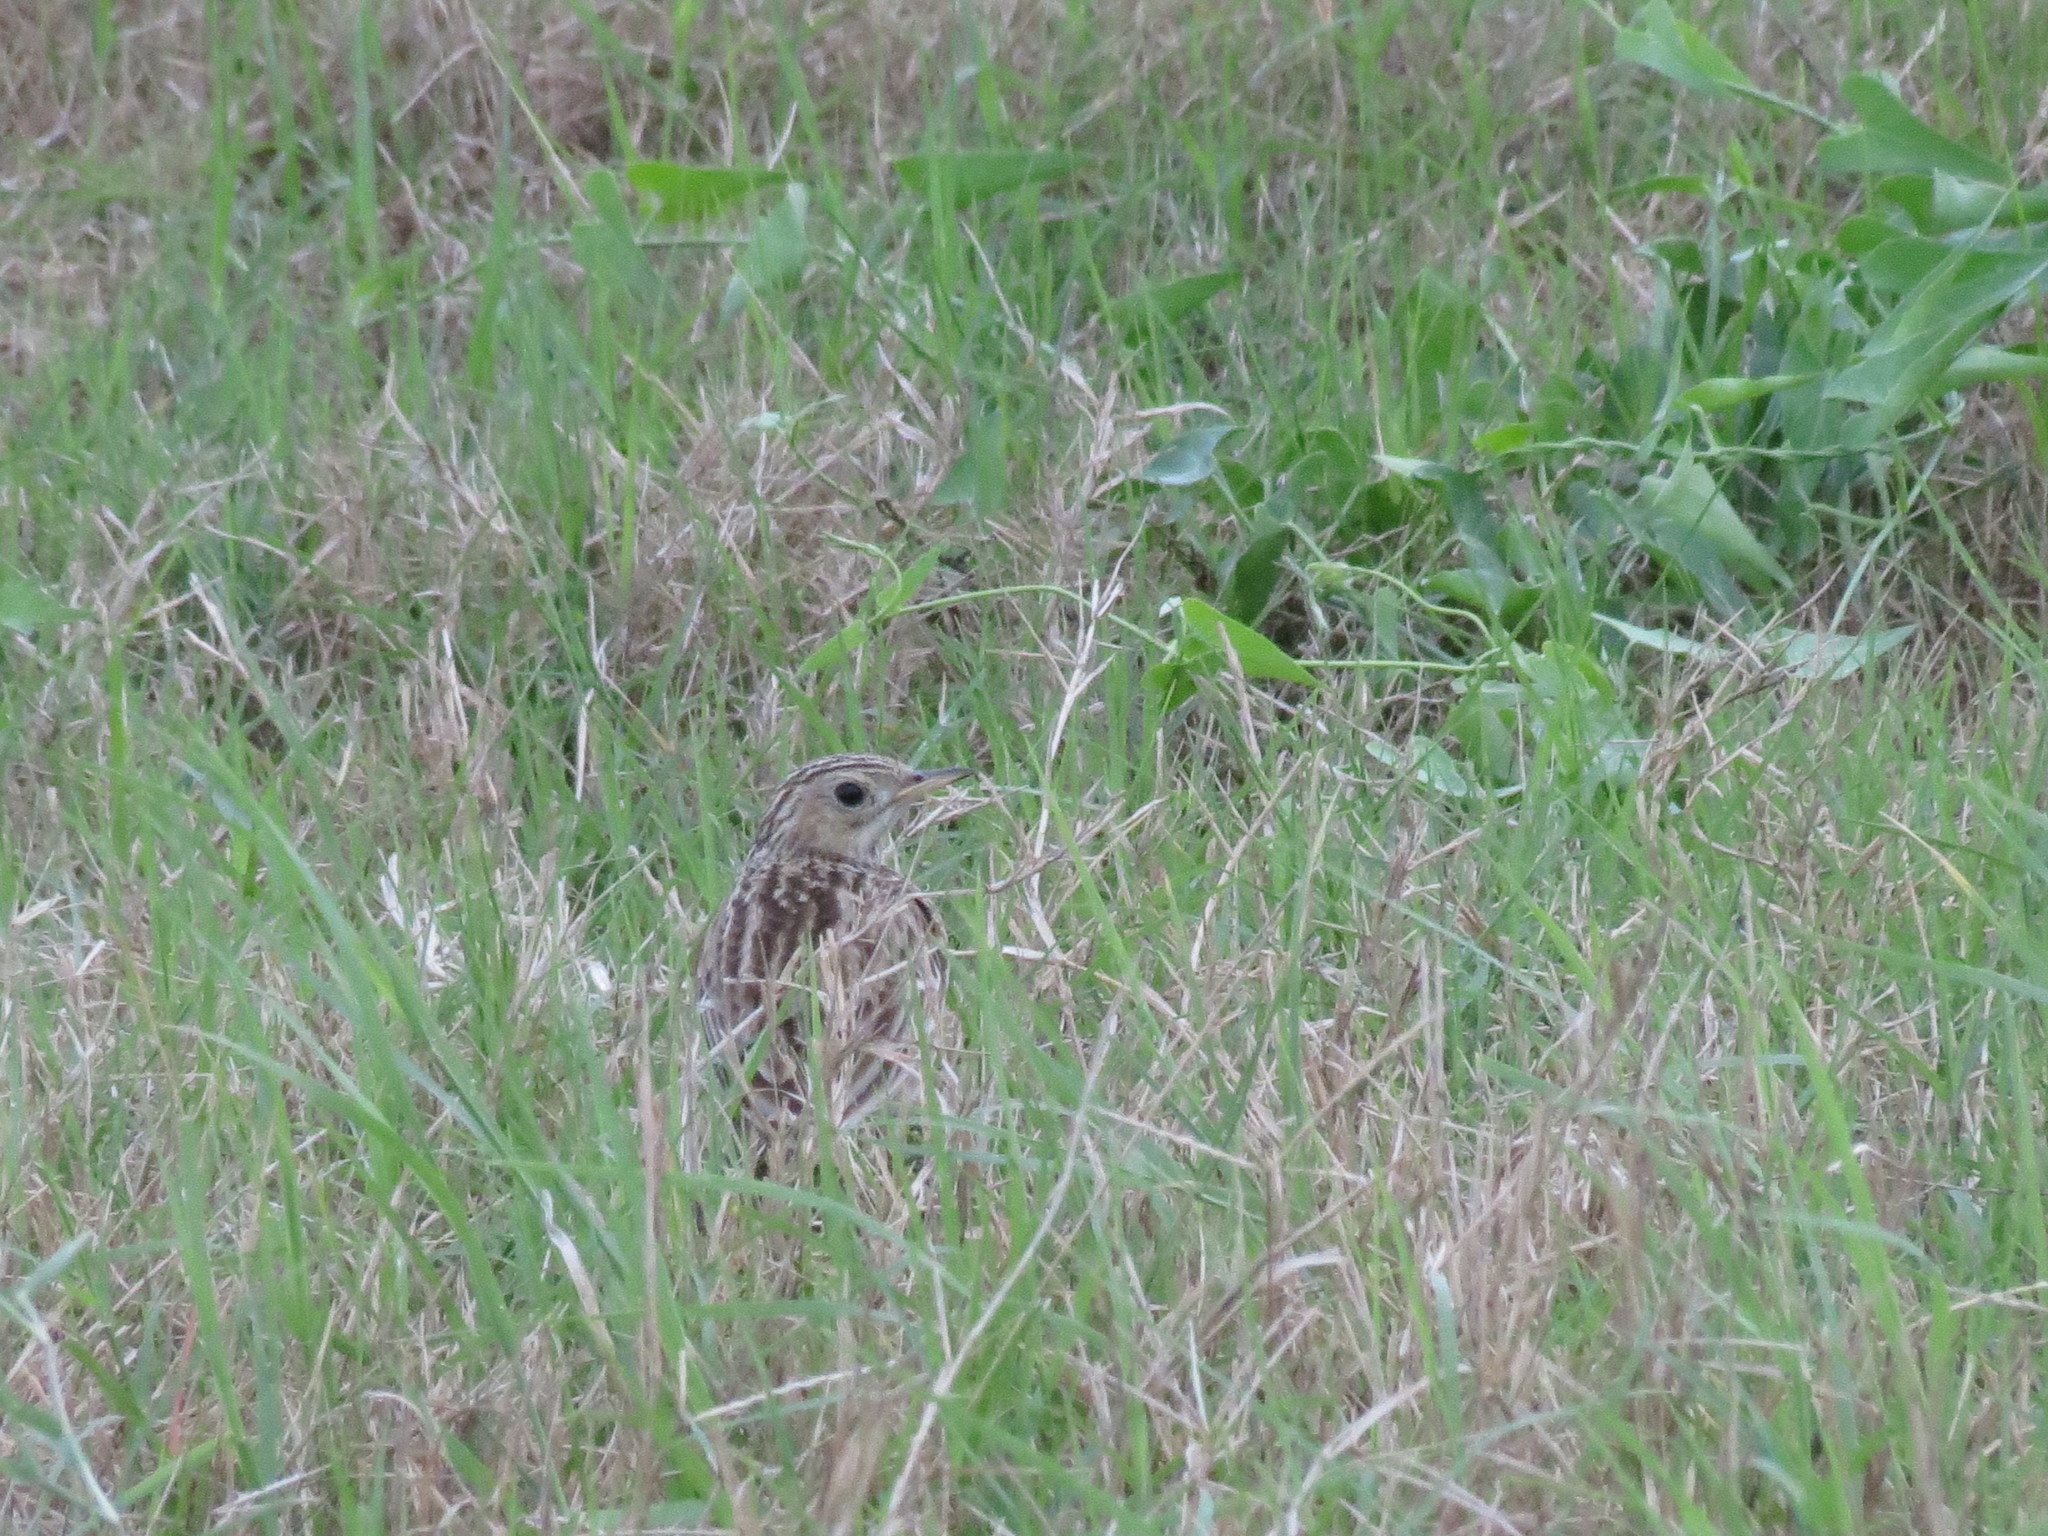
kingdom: Animalia
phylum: Chordata
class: Aves
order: Passeriformes
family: Motacillidae
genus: Anthus
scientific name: Anthus spragueii
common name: Sprague's pipit
